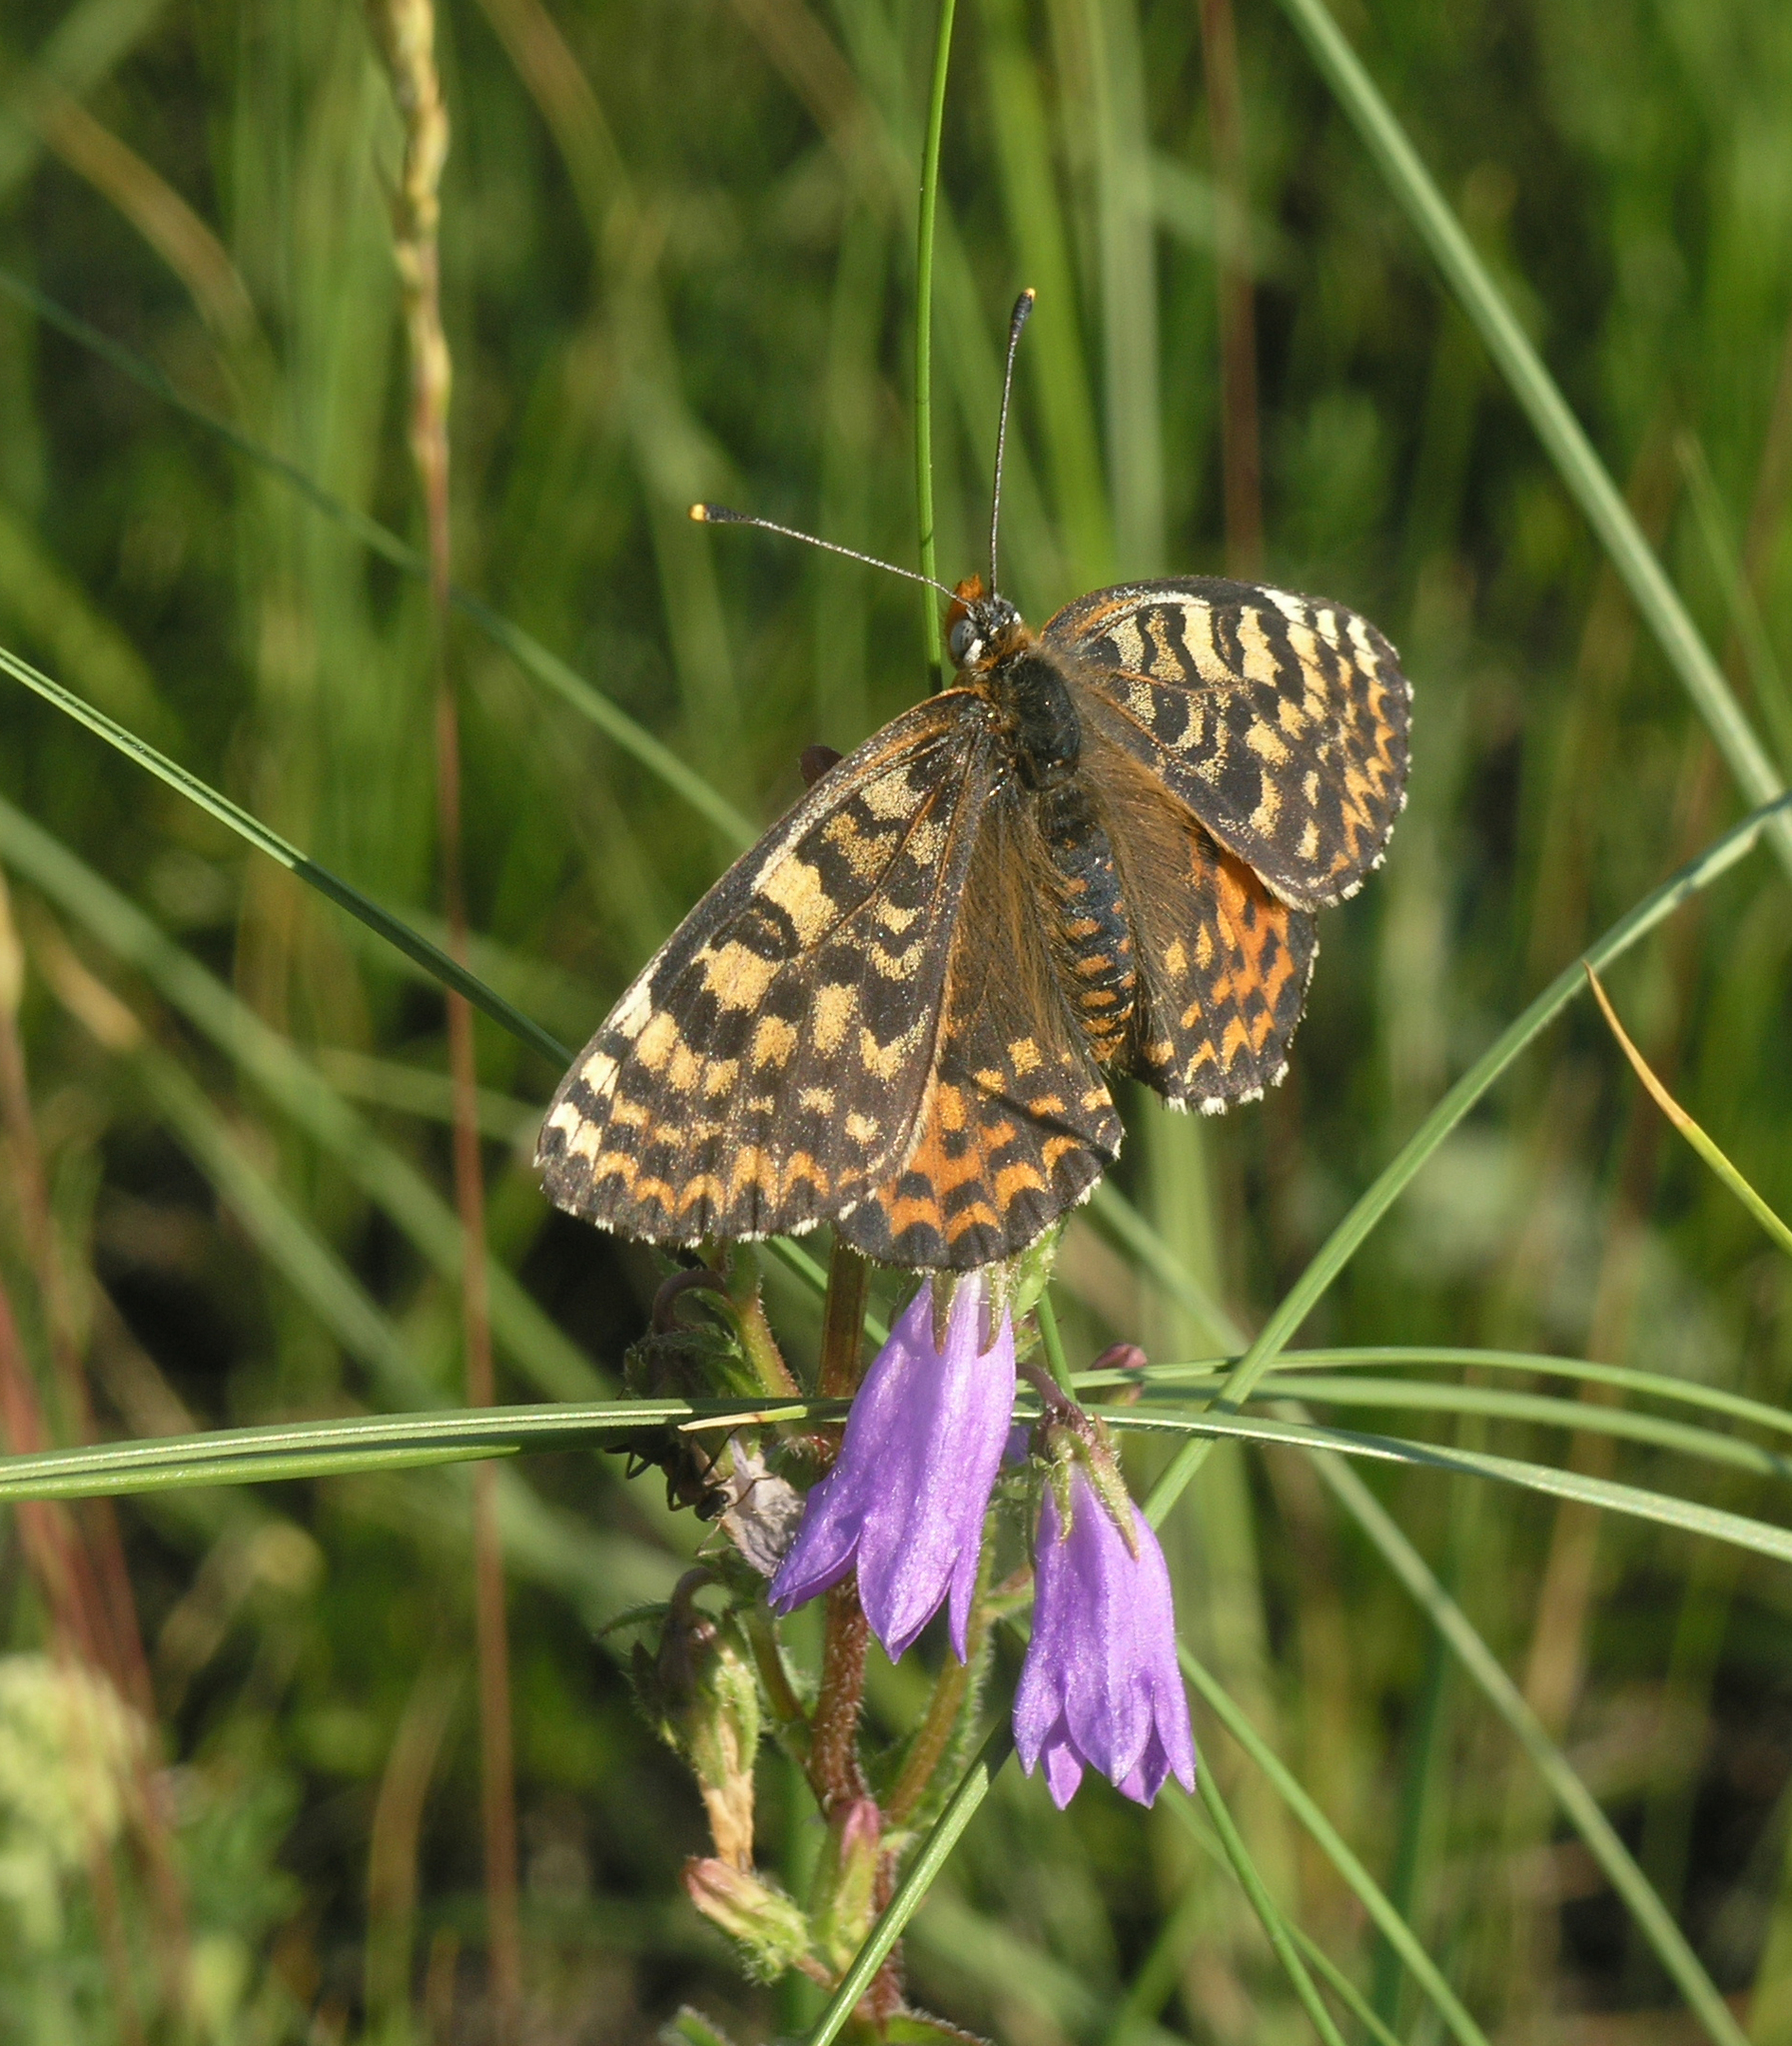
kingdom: Animalia
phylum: Arthropoda
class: Insecta
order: Lepidoptera
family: Nymphalidae
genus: Melitaea
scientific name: Melitaea didyma
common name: Spotted fritillary
